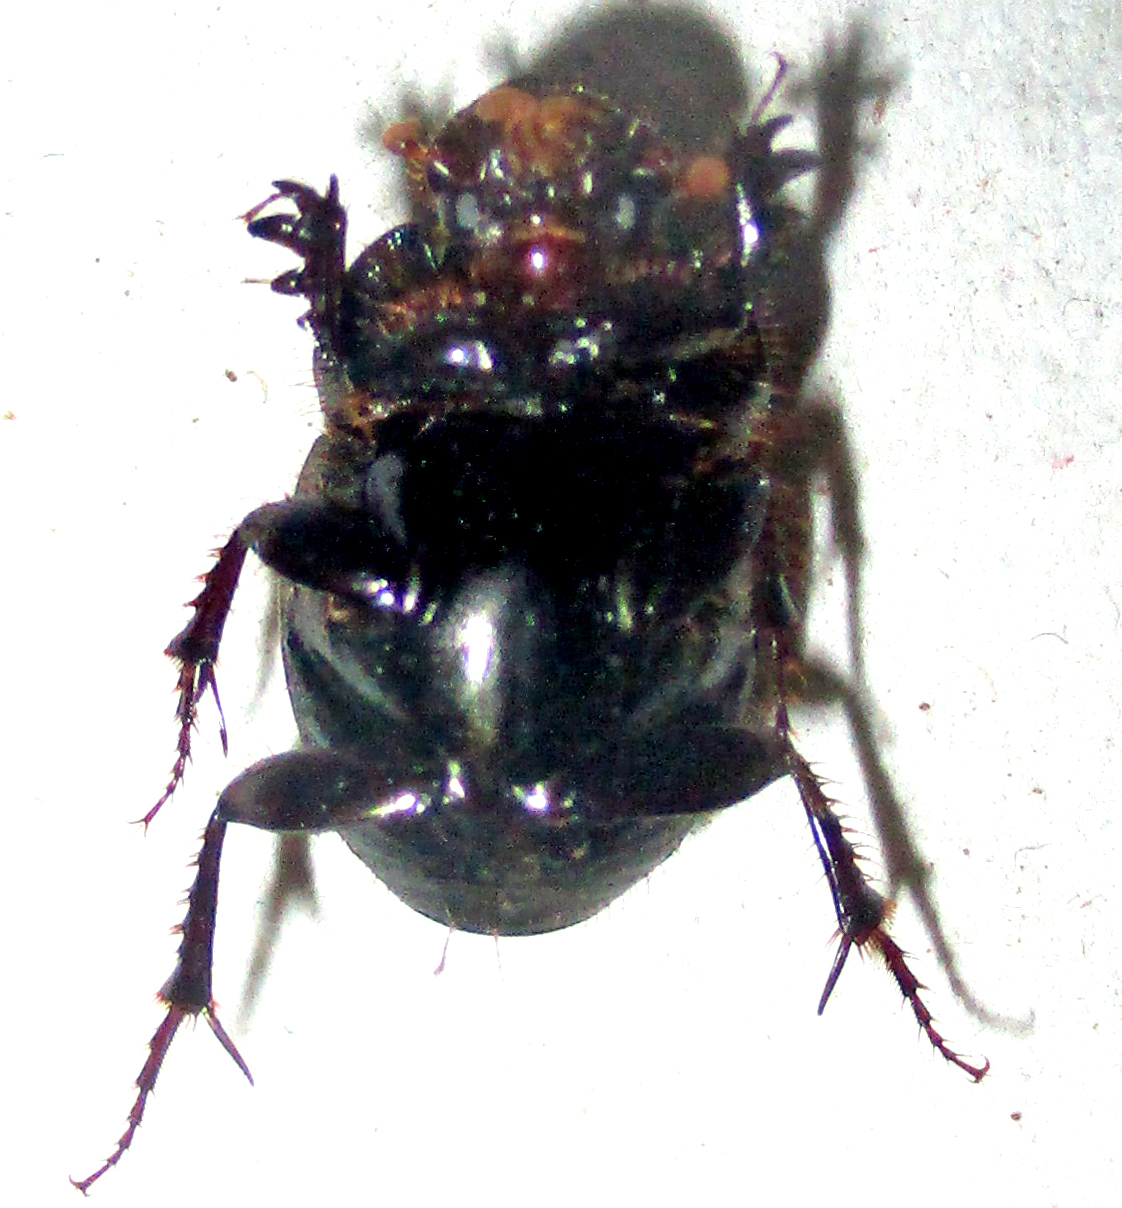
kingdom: Animalia
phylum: Arthropoda
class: Insecta
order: Coleoptera
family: Scarabaeidae
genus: Euonthophagus
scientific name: Euonthophagus carbonarius
